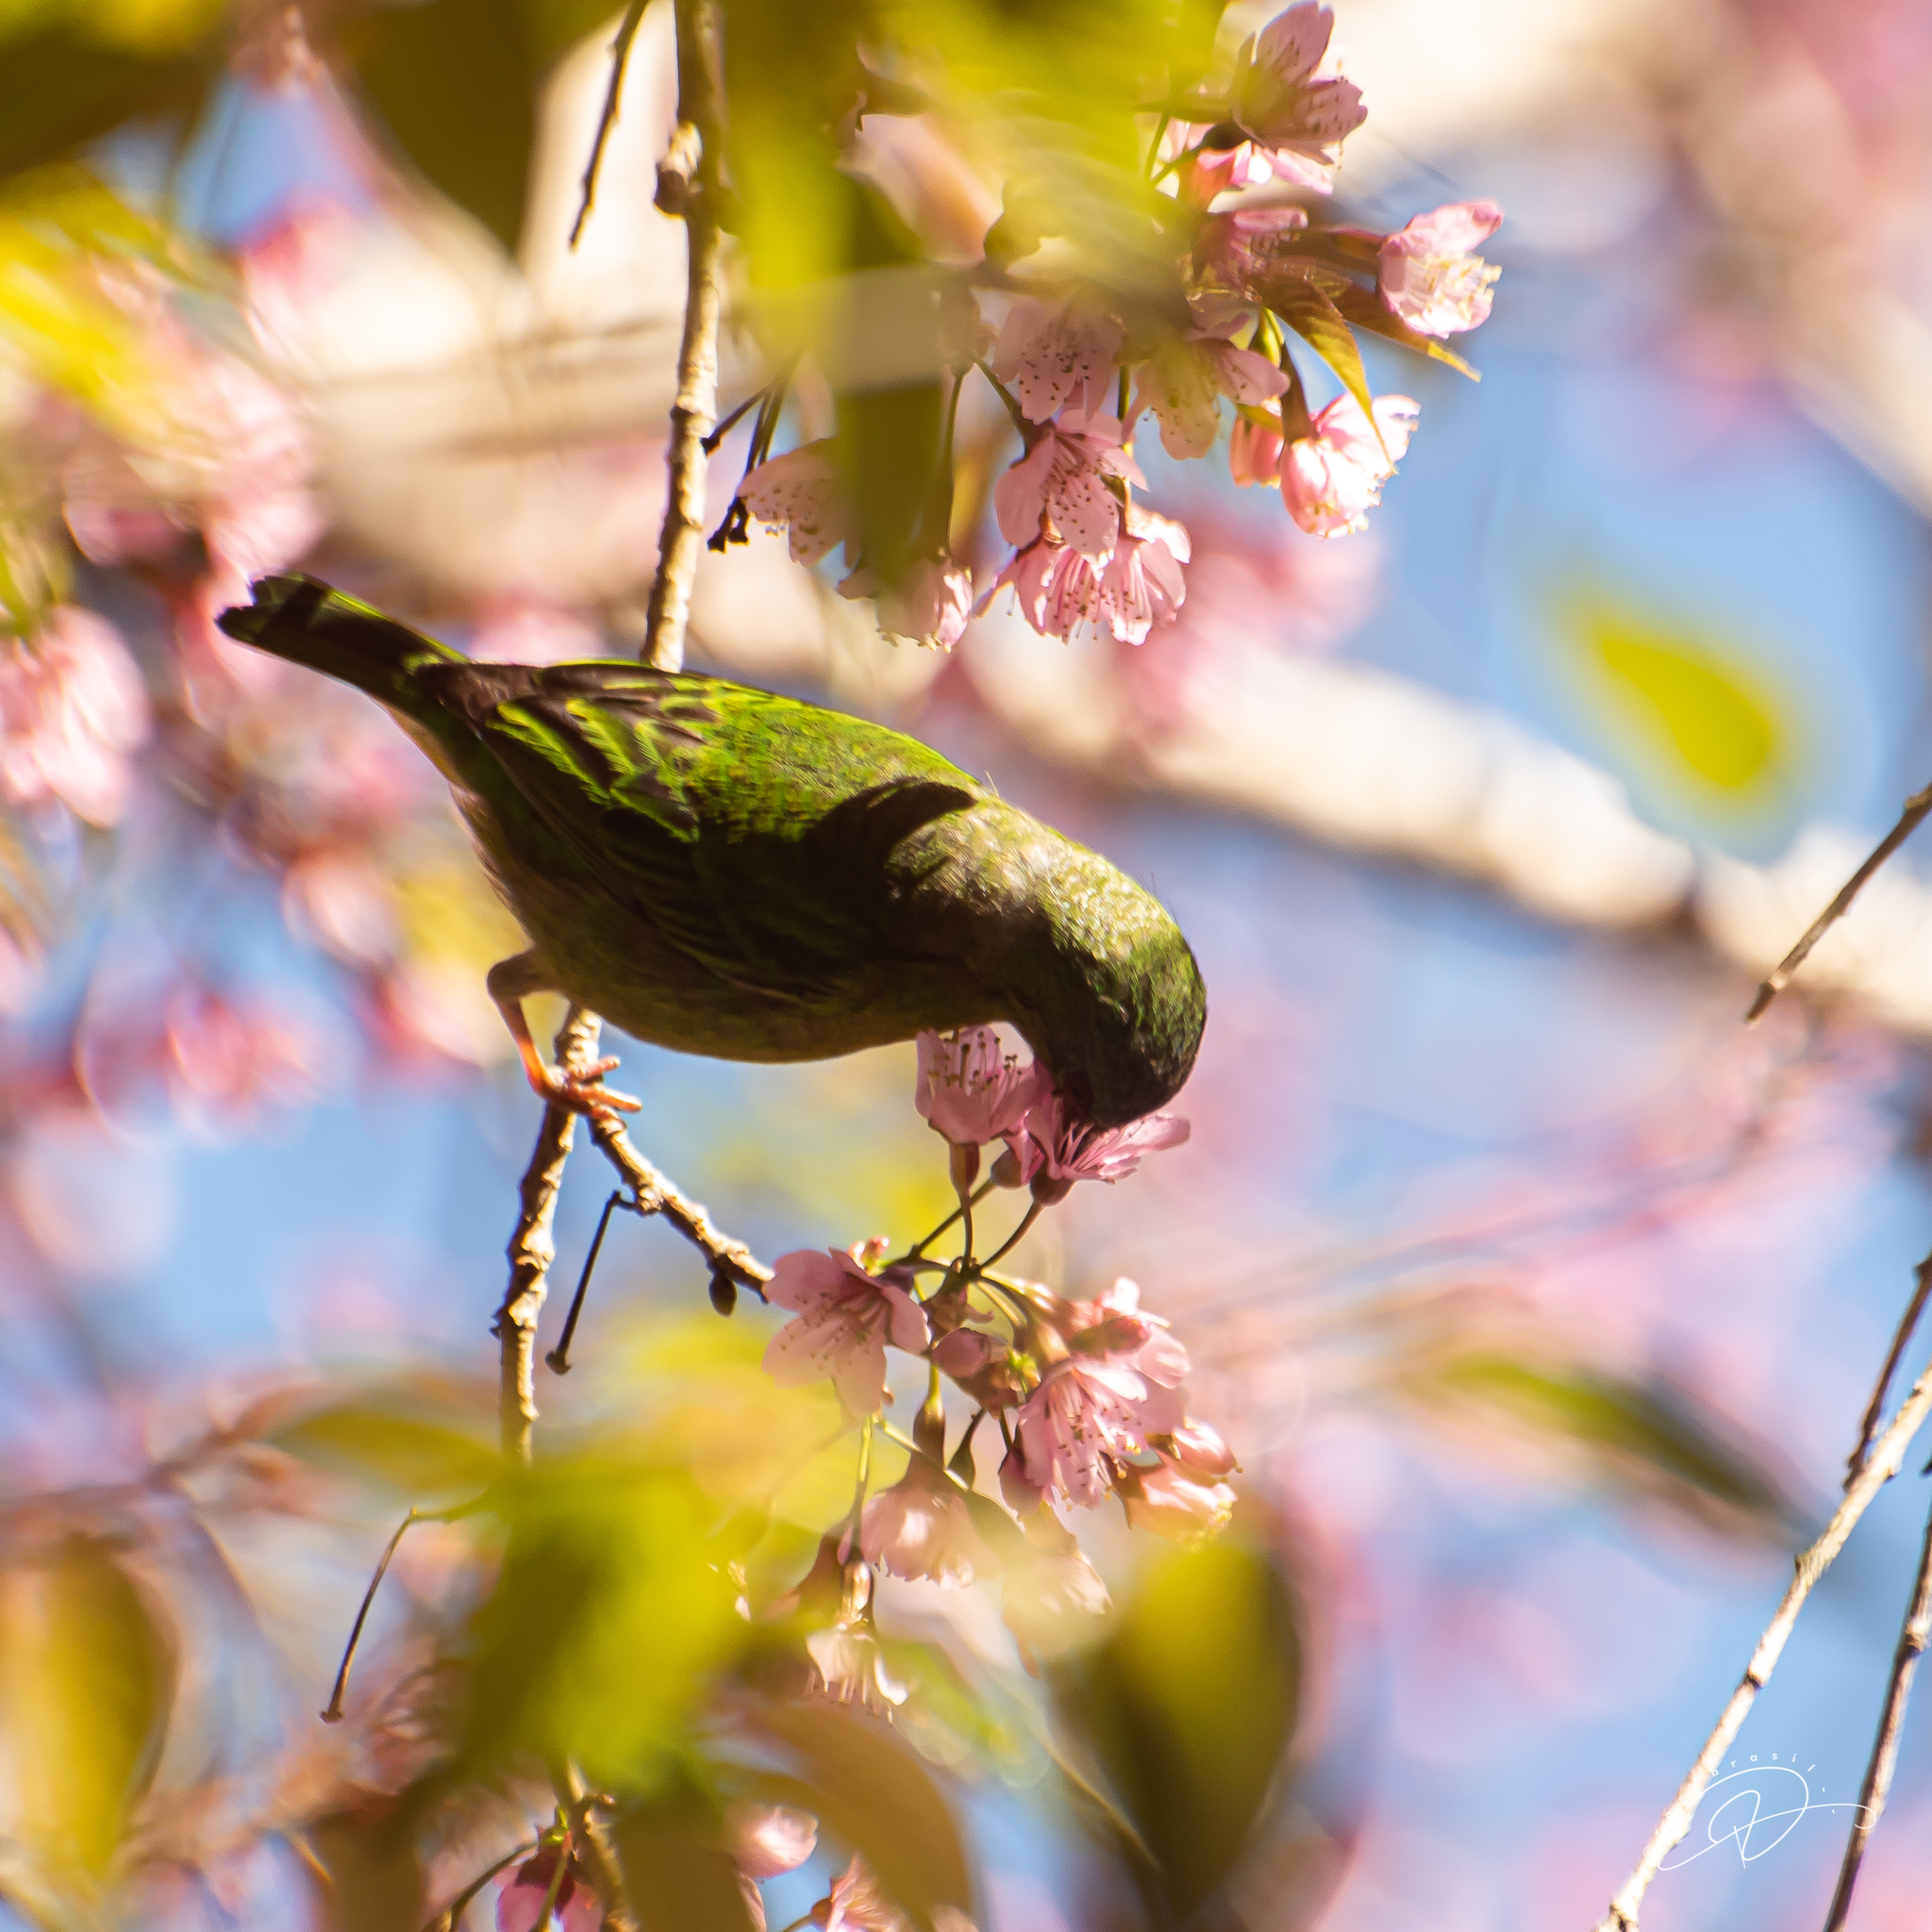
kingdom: Animalia
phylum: Chordata
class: Aves
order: Passeriformes
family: Thraupidae
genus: Dacnis
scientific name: Dacnis cayana
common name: Blue dacnis
